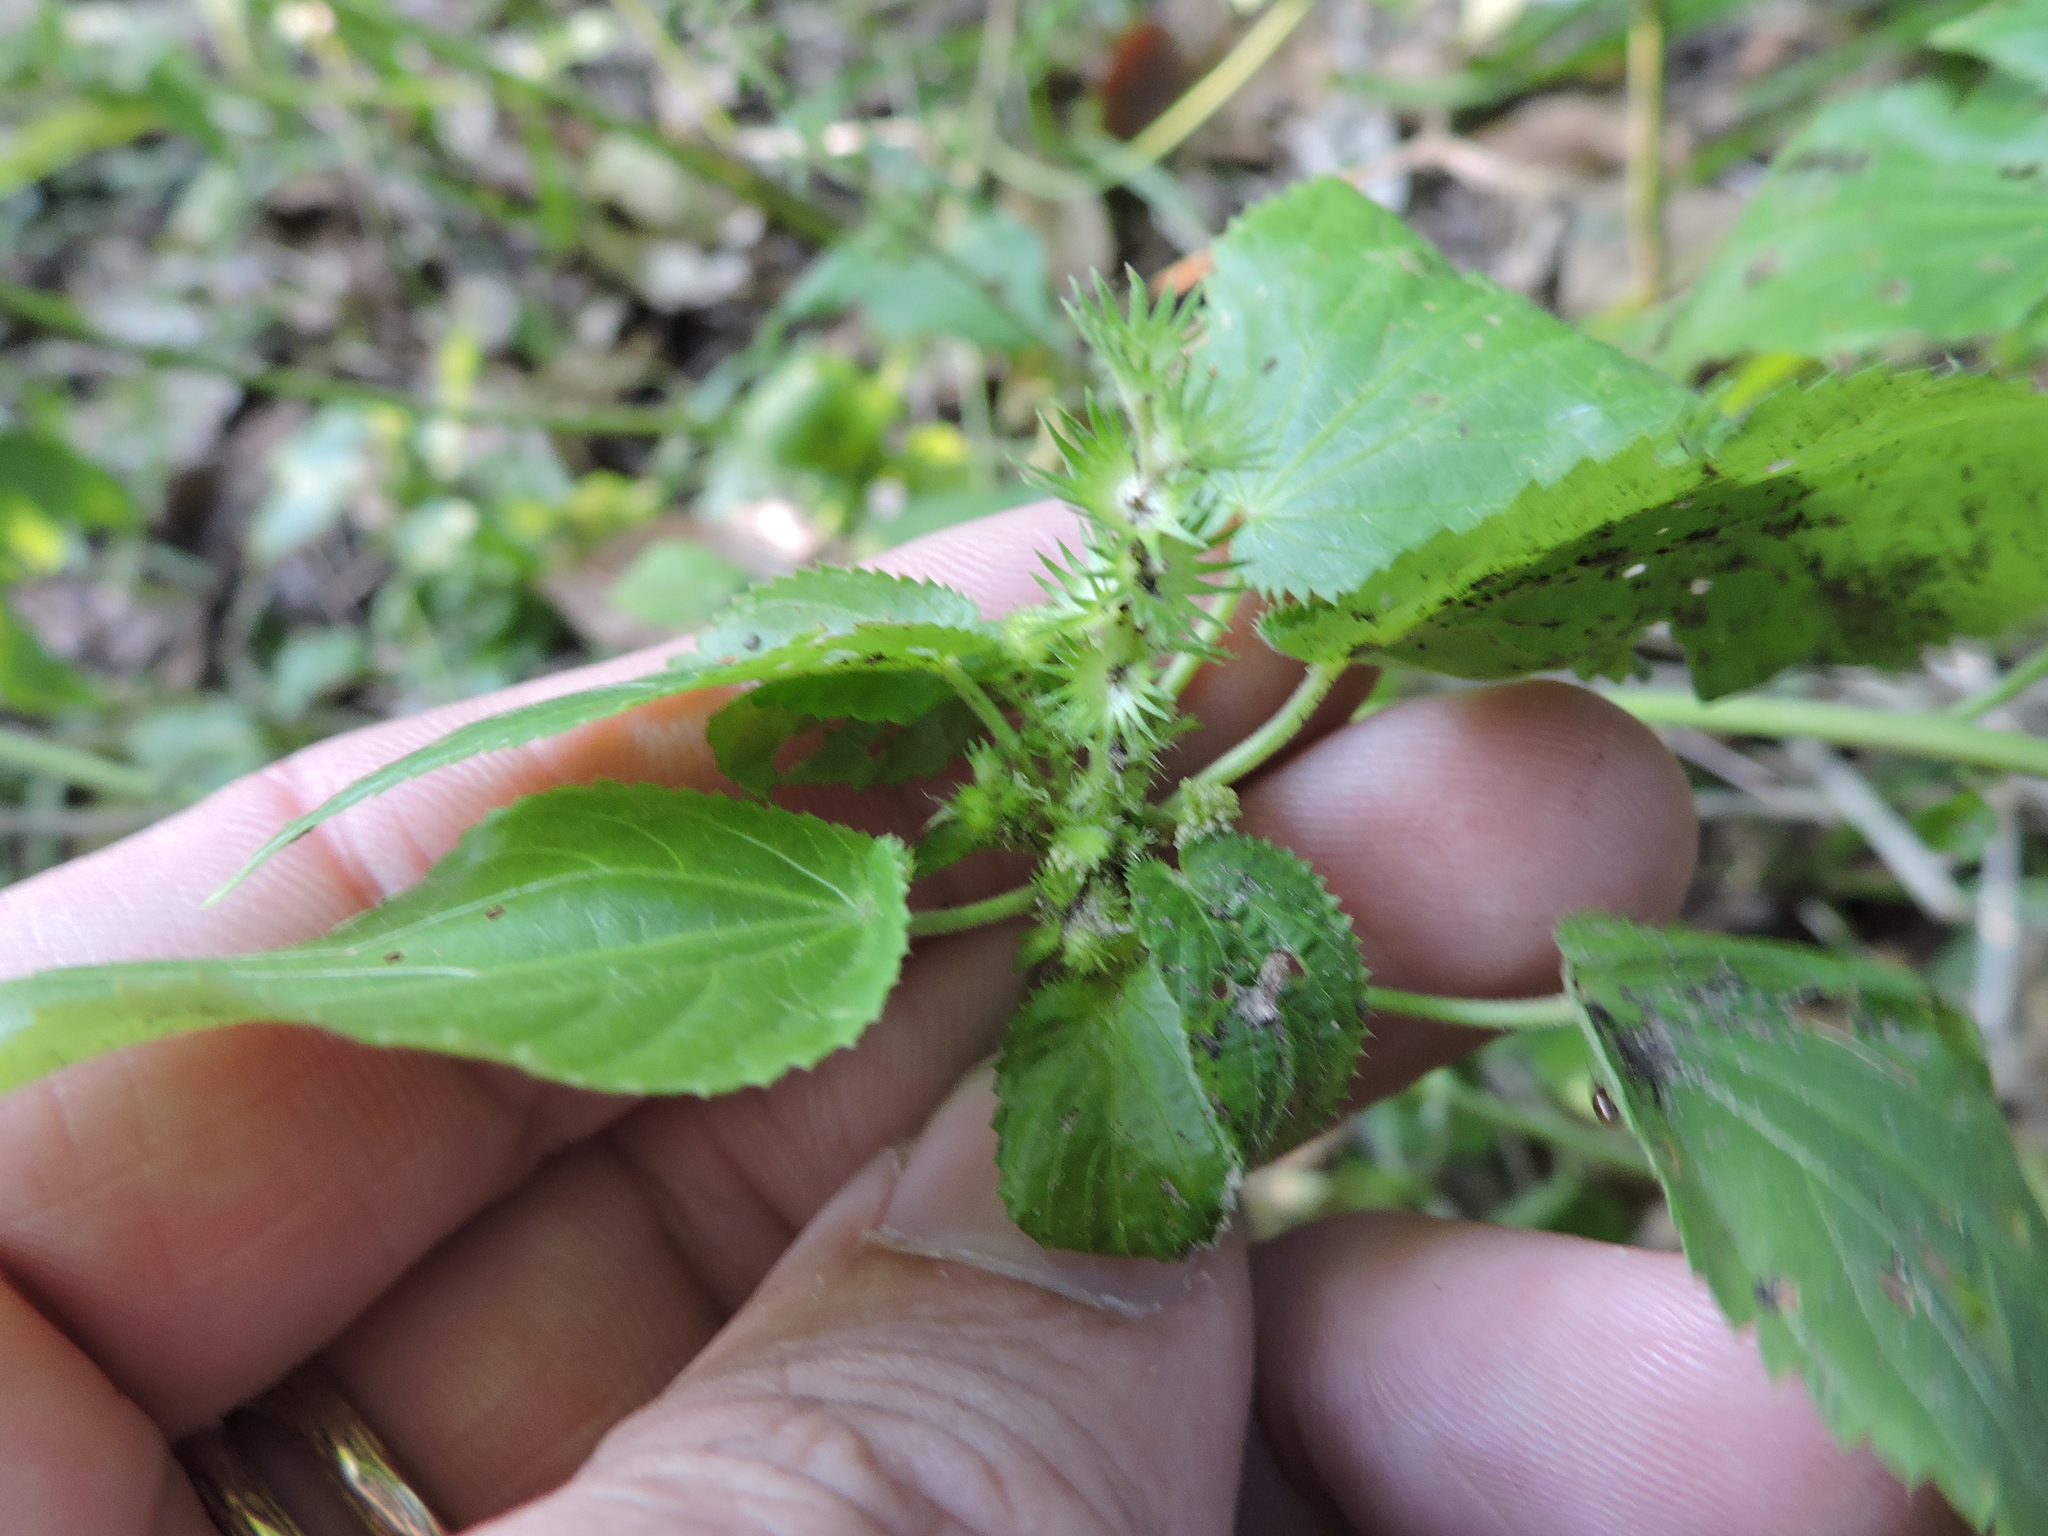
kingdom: Plantae
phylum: Tracheophyta
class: Magnoliopsida
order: Malpighiales
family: Euphorbiaceae
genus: Acalypha
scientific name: Acalypha ostryifolia
